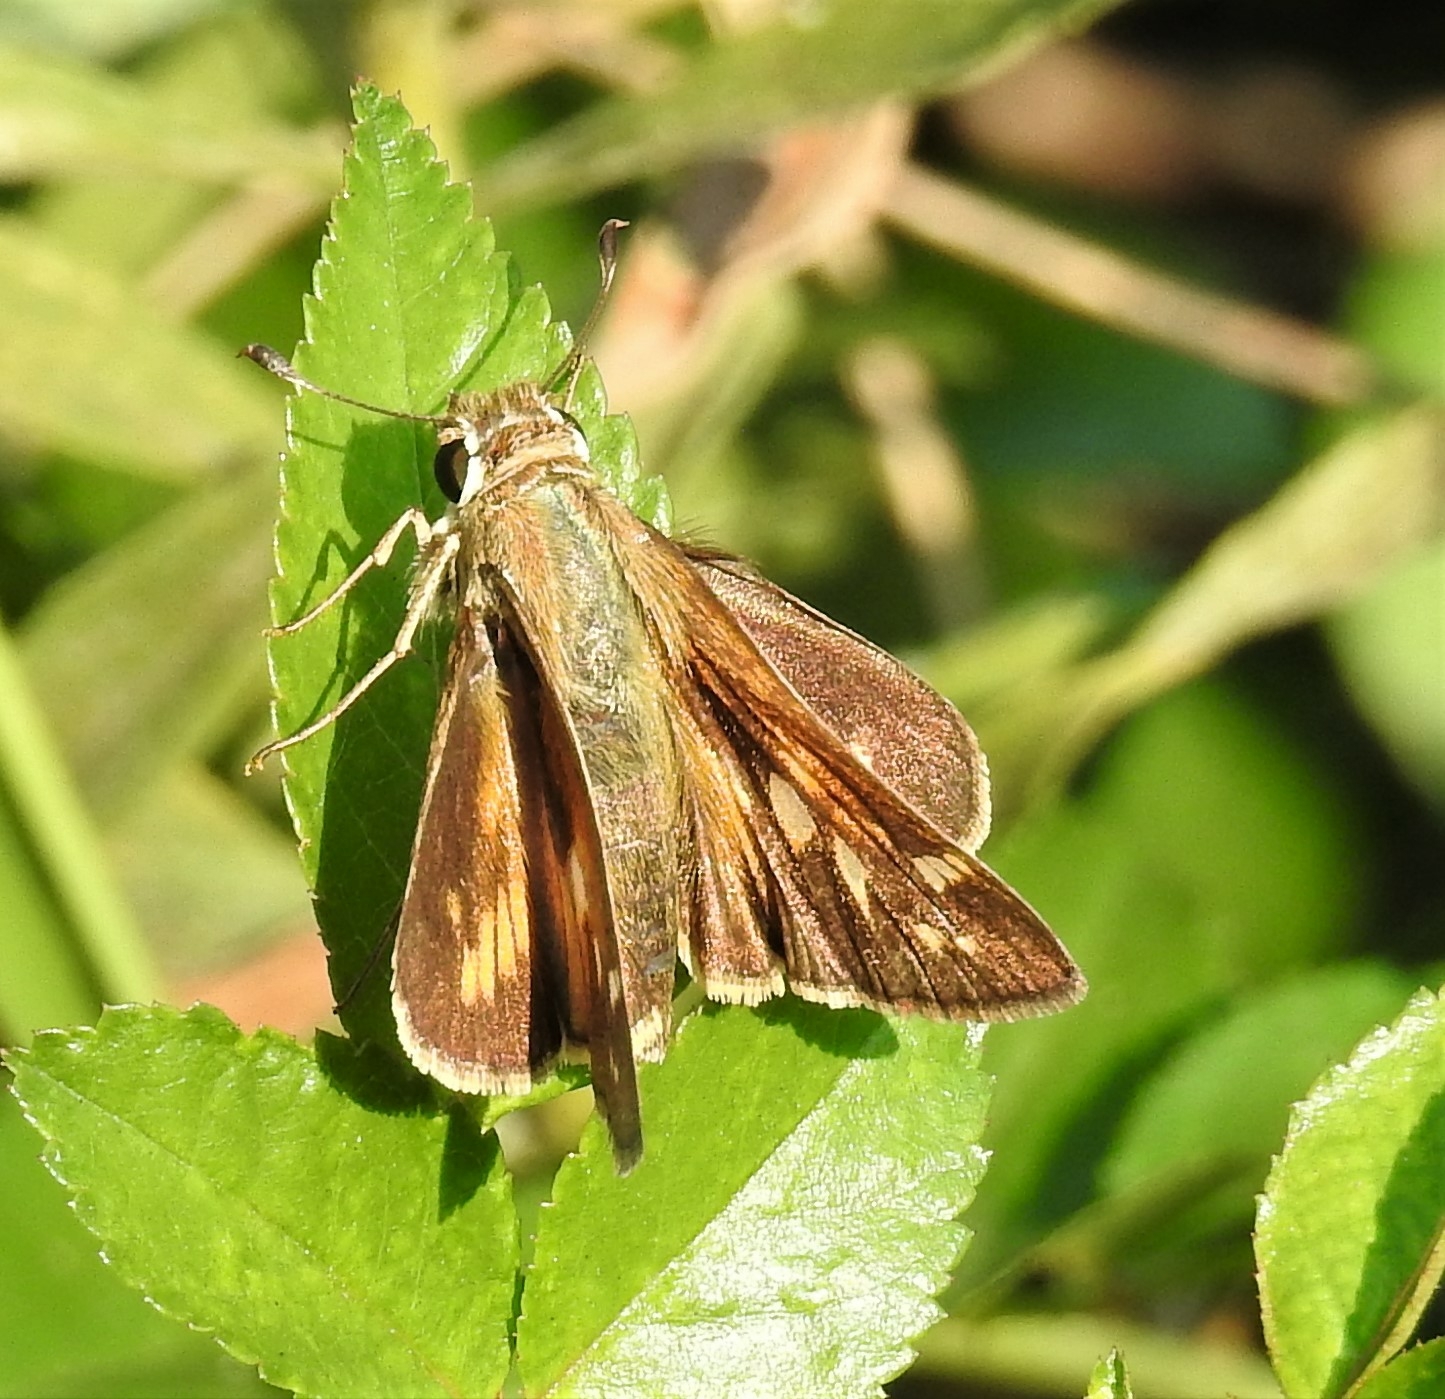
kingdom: Animalia
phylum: Arthropoda
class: Insecta
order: Lepidoptera
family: Hesperiidae
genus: Atalopedes
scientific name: Atalopedes
